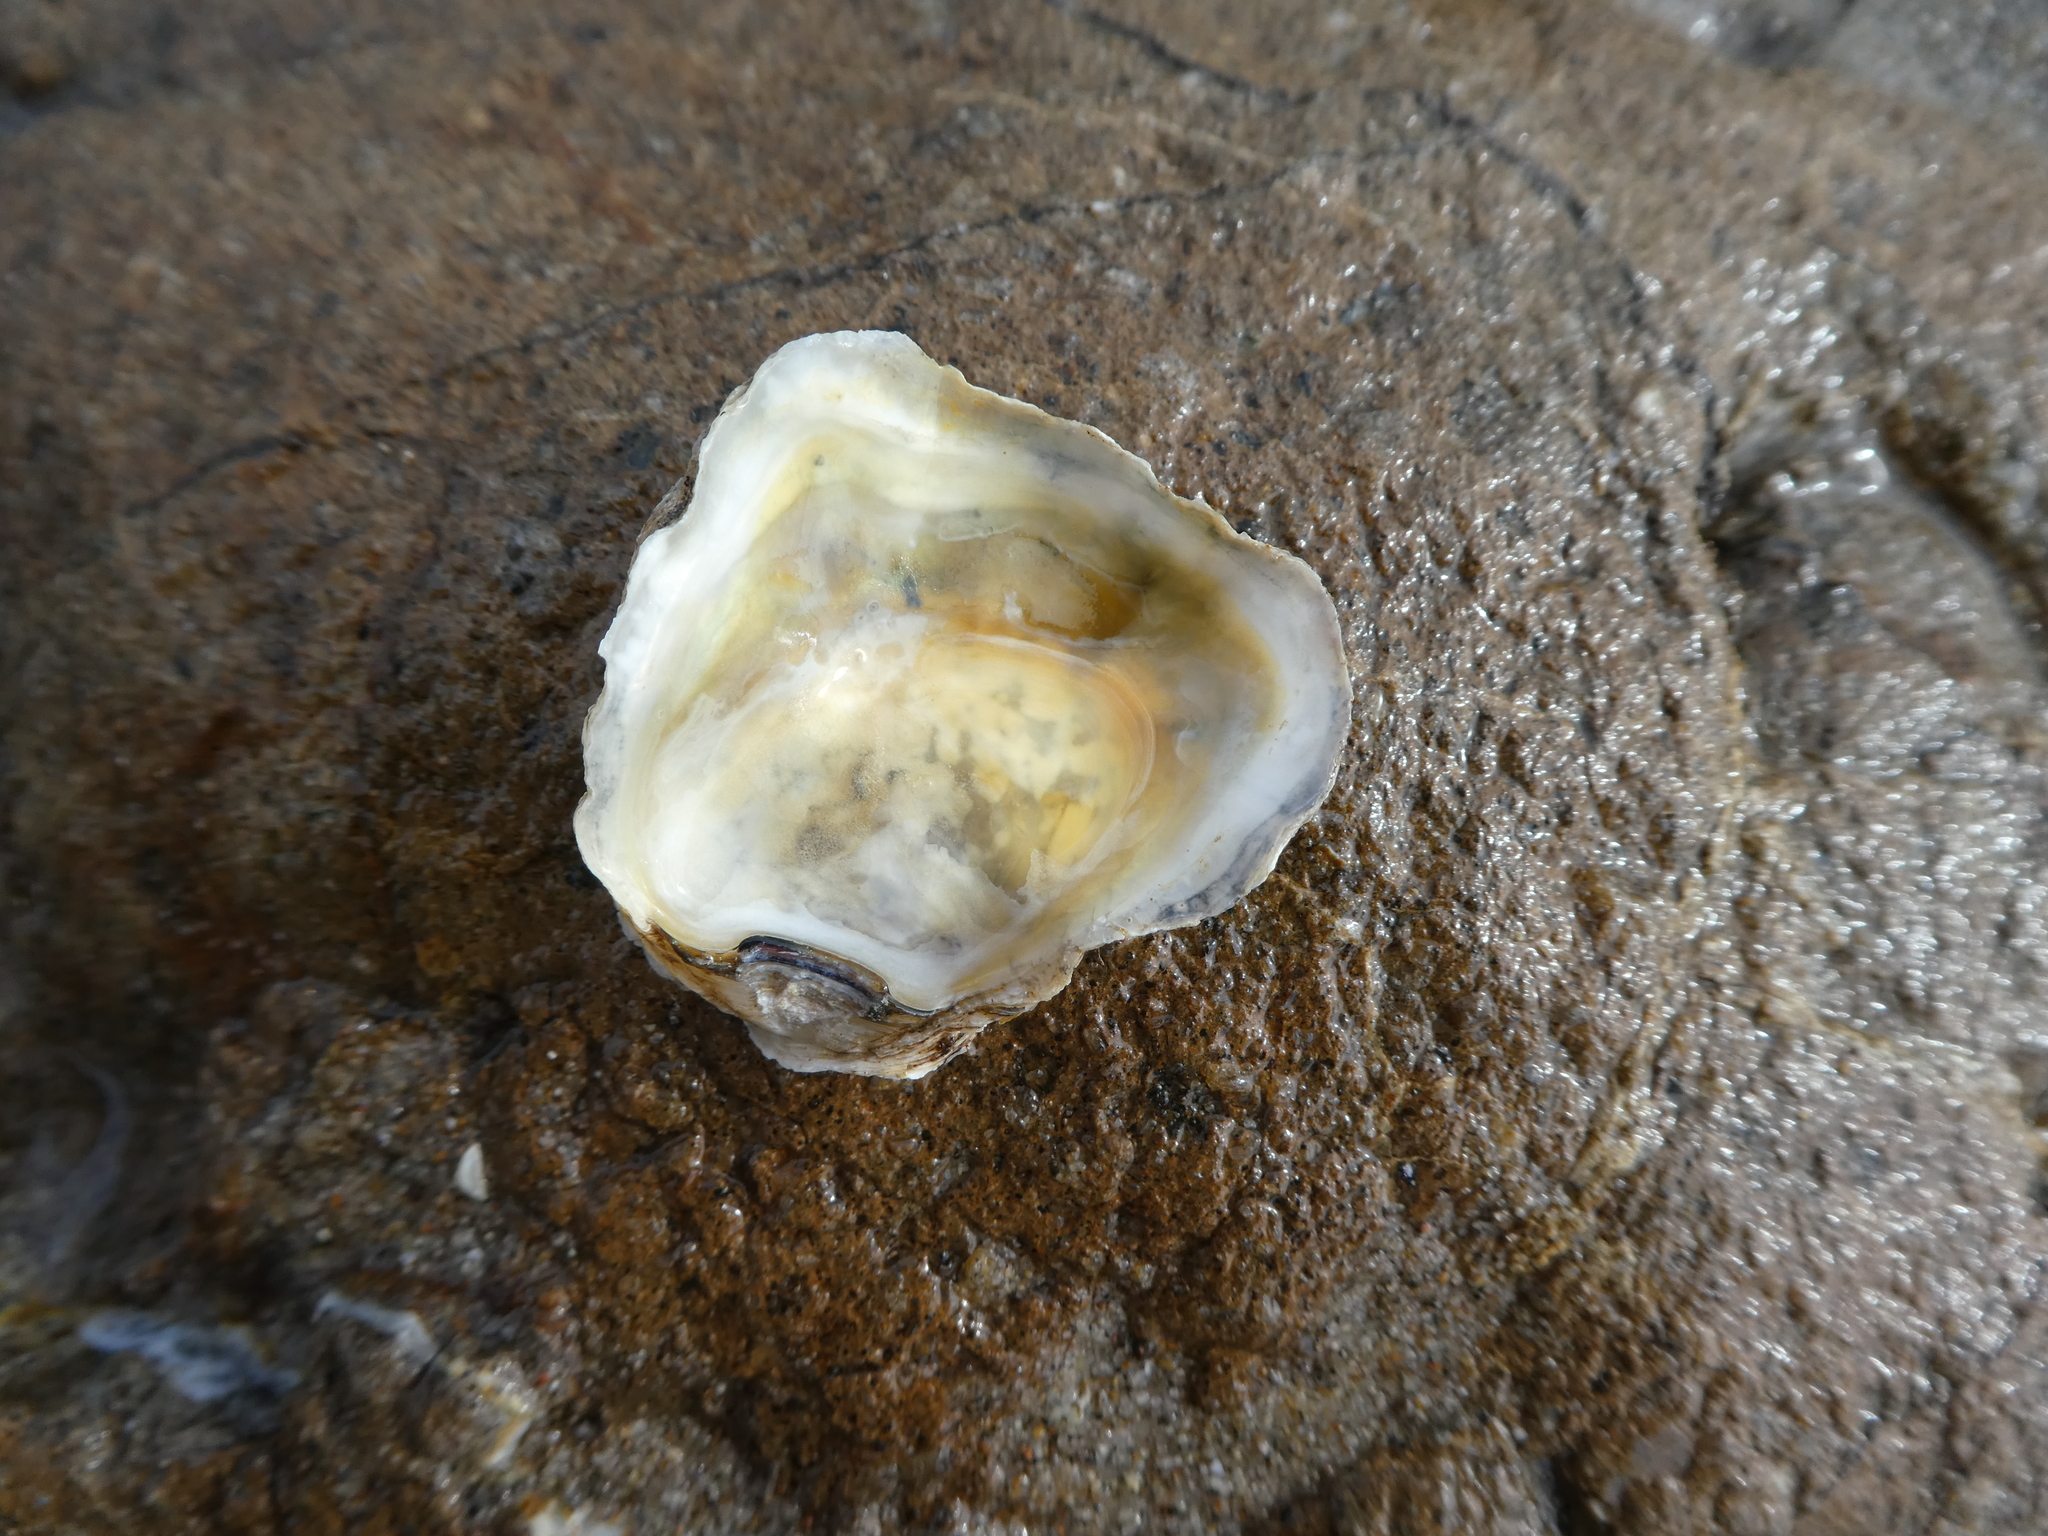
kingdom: Animalia
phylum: Mollusca
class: Bivalvia
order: Ostreida
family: Ostreidae
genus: Ostrea
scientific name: Ostrea lurida
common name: Olympia flat oyster
